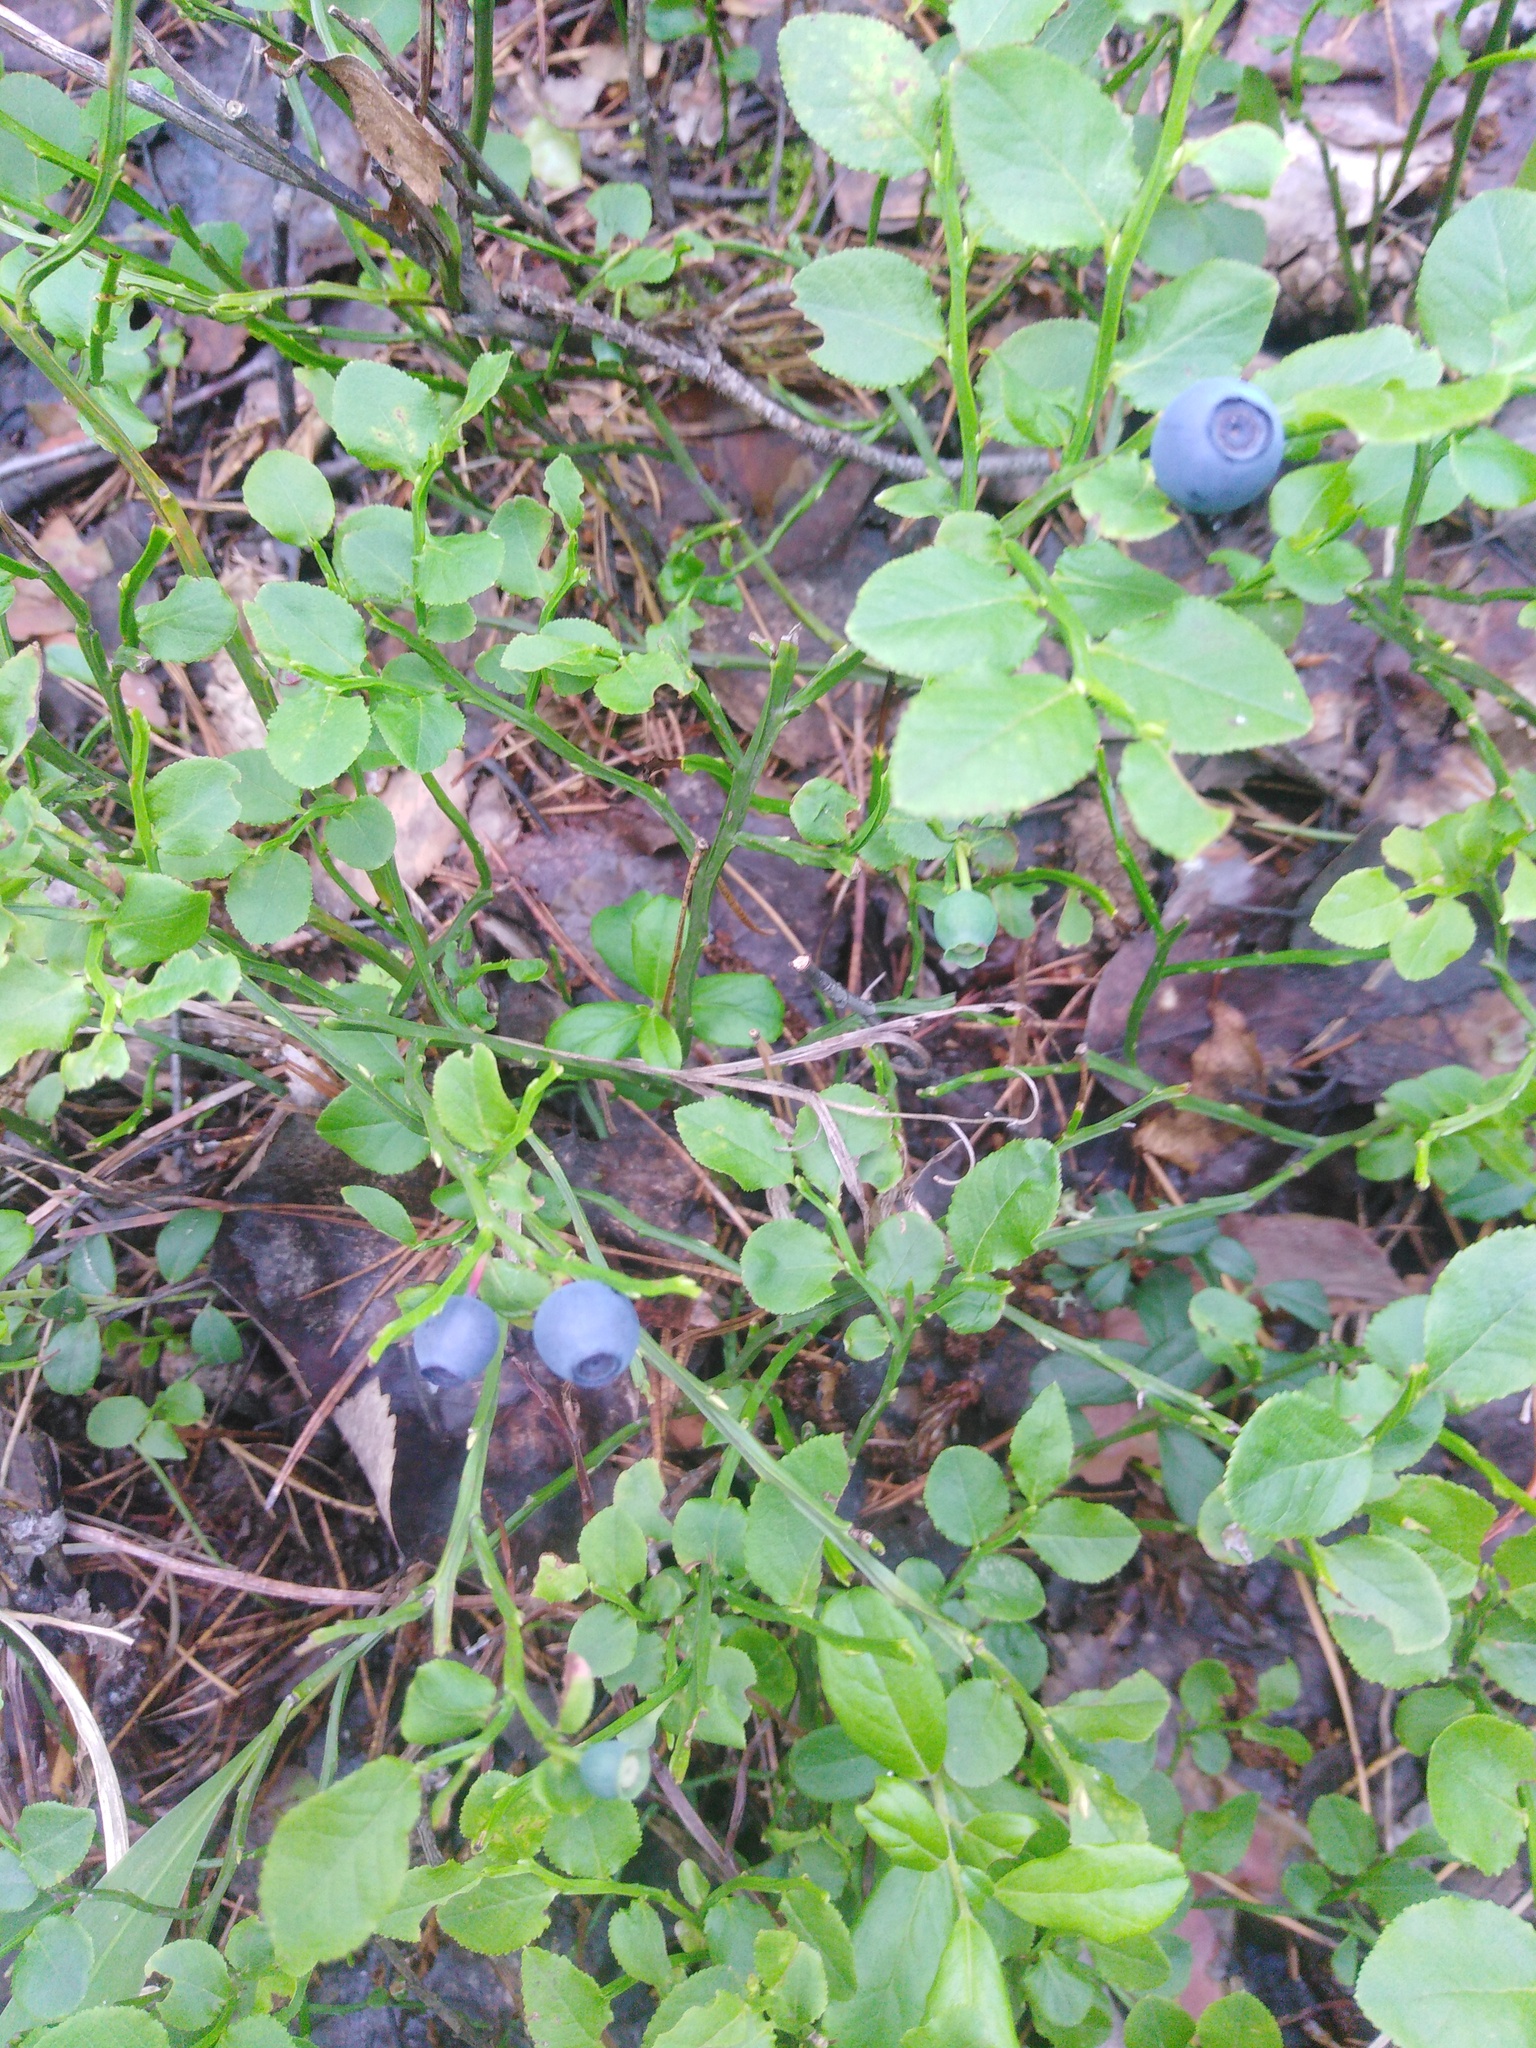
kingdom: Plantae
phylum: Tracheophyta
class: Magnoliopsida
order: Ericales
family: Ericaceae
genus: Vaccinium
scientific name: Vaccinium myrtillus
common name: Bilberry
